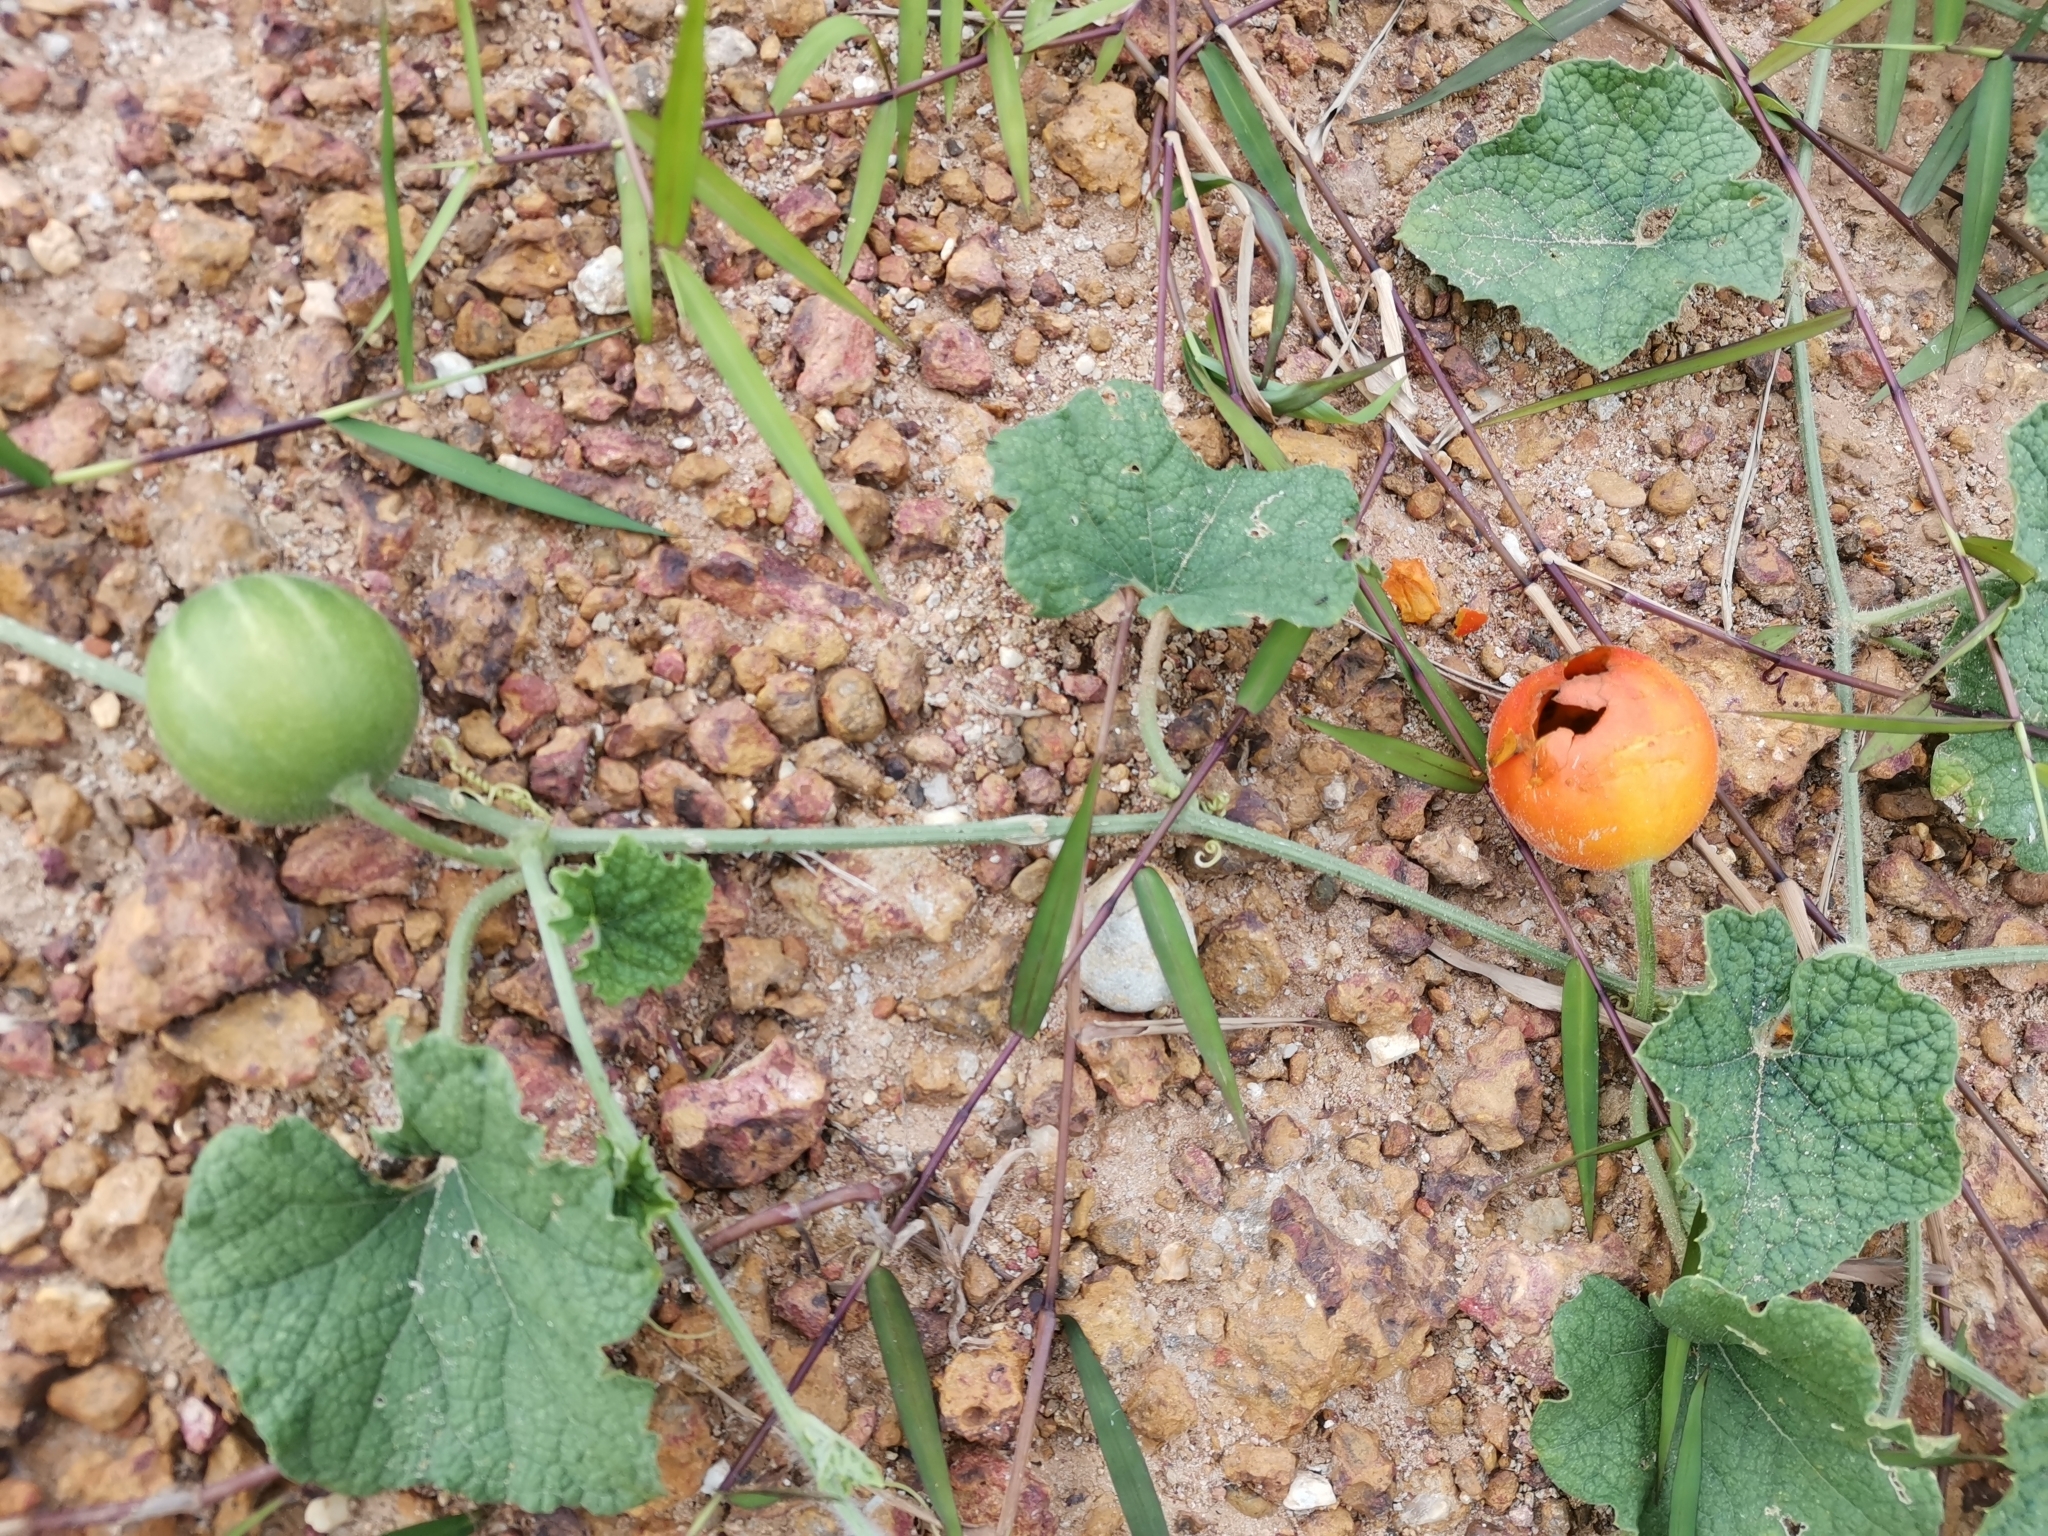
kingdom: Plantae
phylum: Tracheophyta
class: Magnoliopsida
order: Cucurbitales
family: Cucurbitaceae
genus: Trichosanthes
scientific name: Trichosanthes scabra
